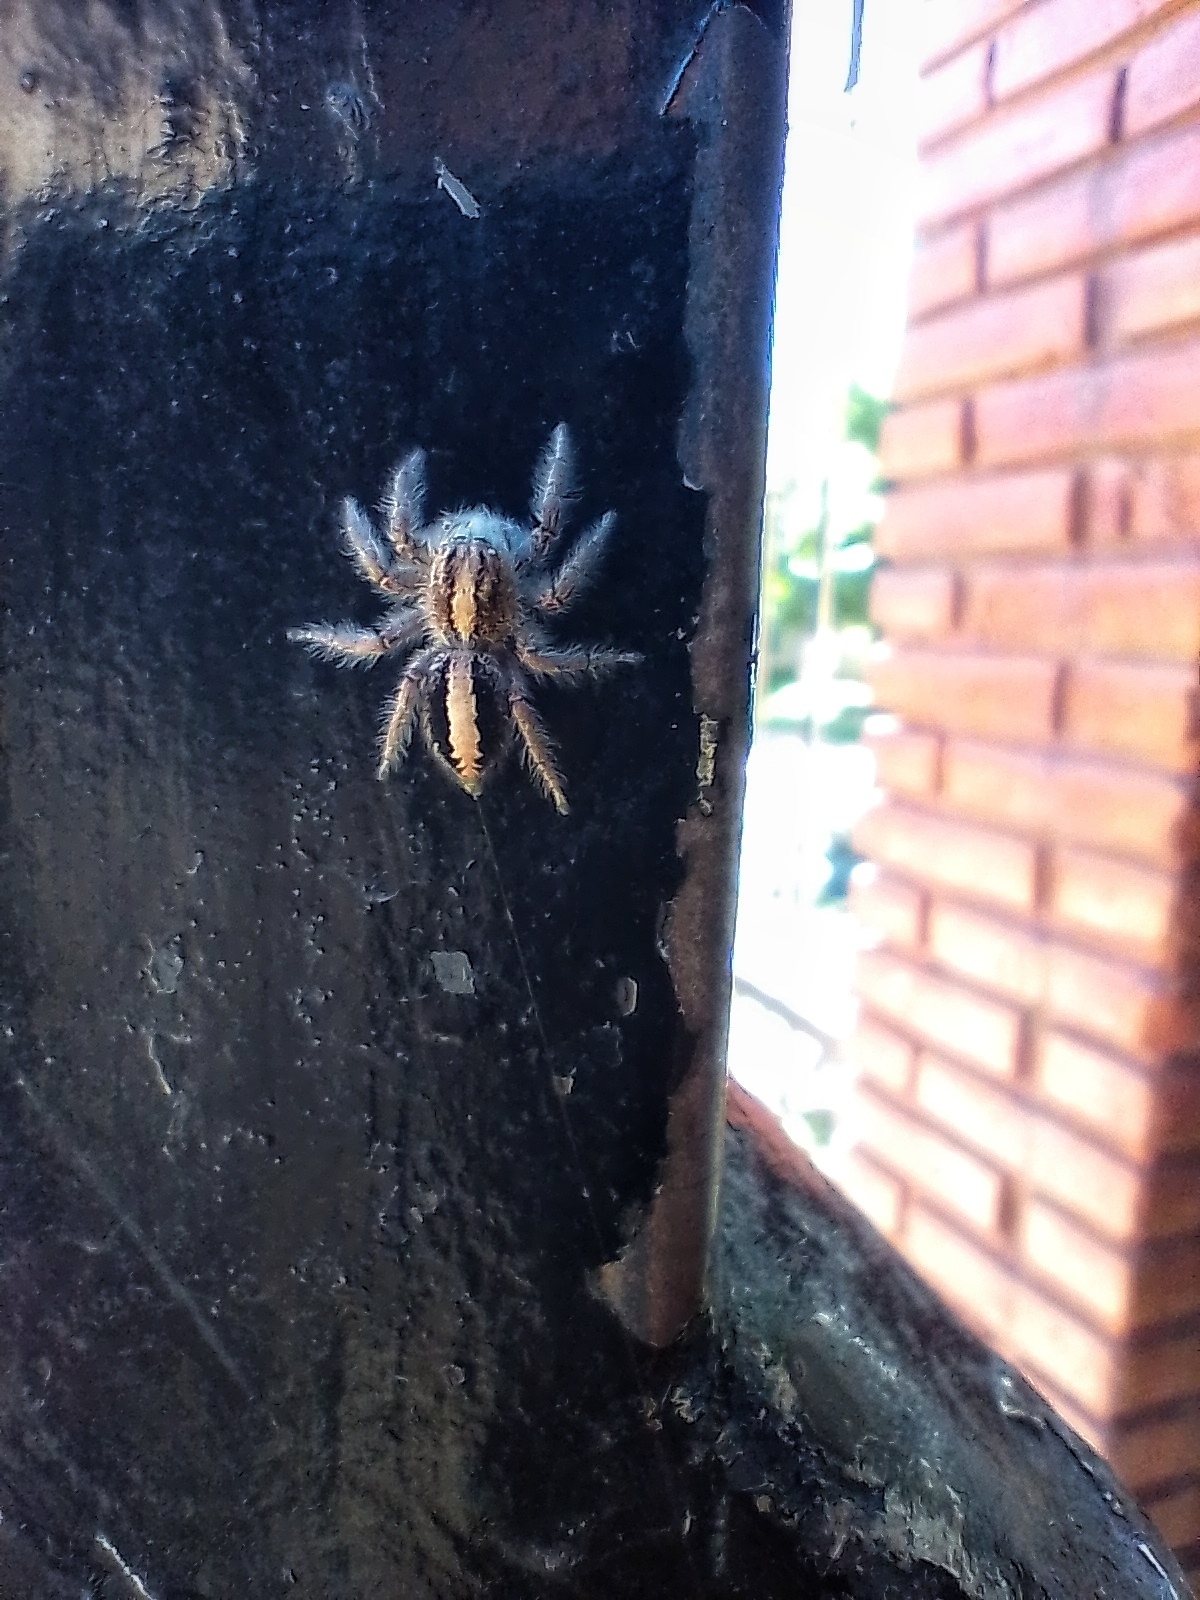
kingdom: Animalia
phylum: Arthropoda
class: Arachnida
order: Araneae
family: Salticidae
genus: Megafreya
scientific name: Megafreya sutrix
